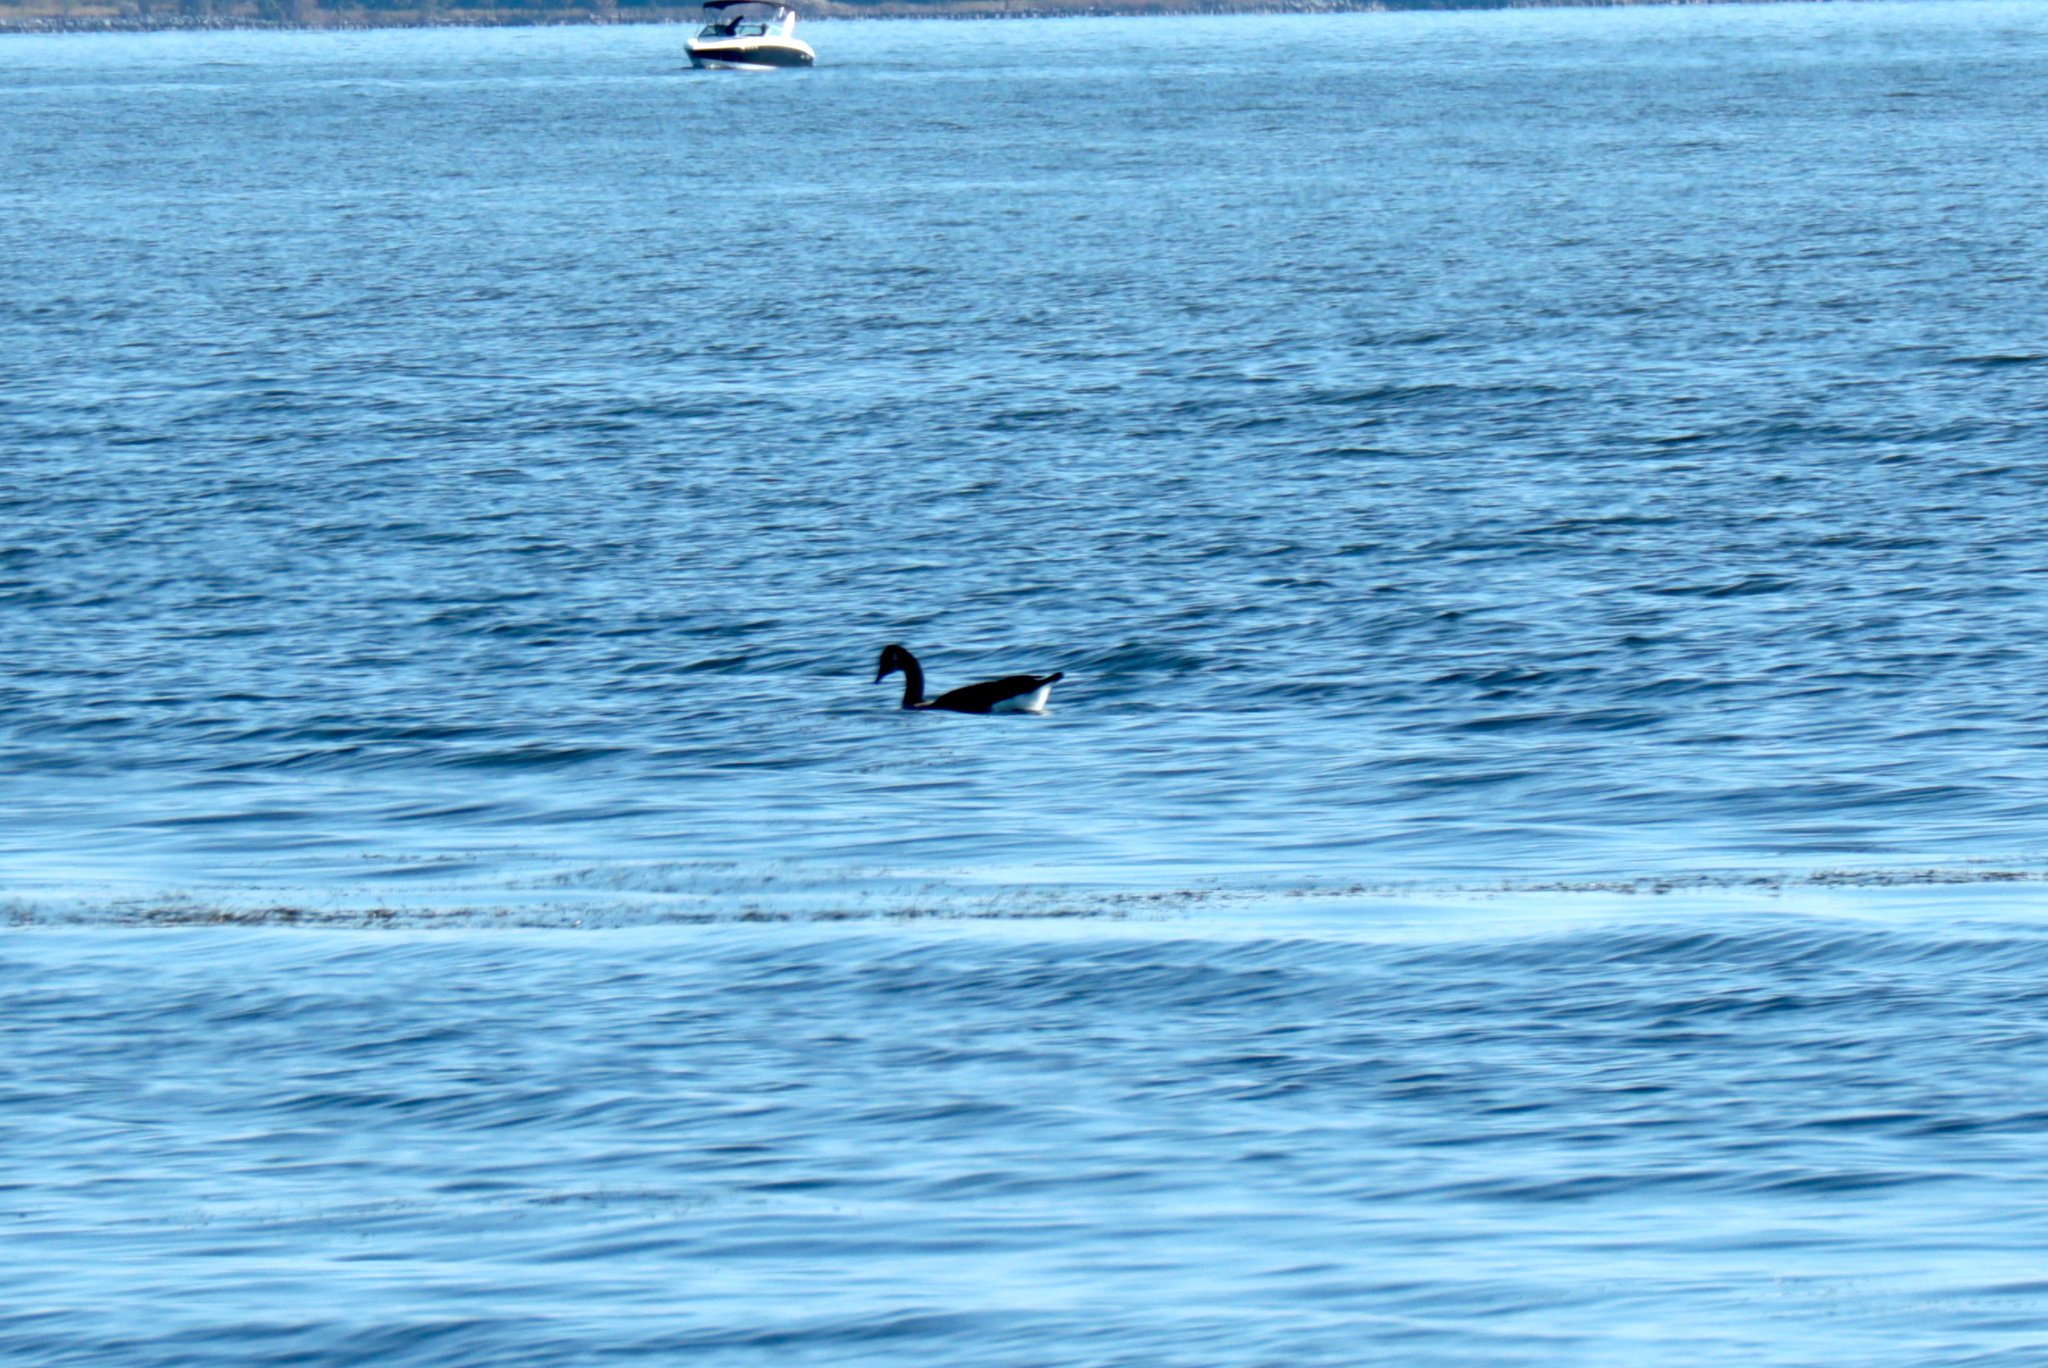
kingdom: Animalia
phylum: Chordata
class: Aves
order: Anseriformes
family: Anatidae
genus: Branta
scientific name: Branta canadensis
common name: Canada goose
